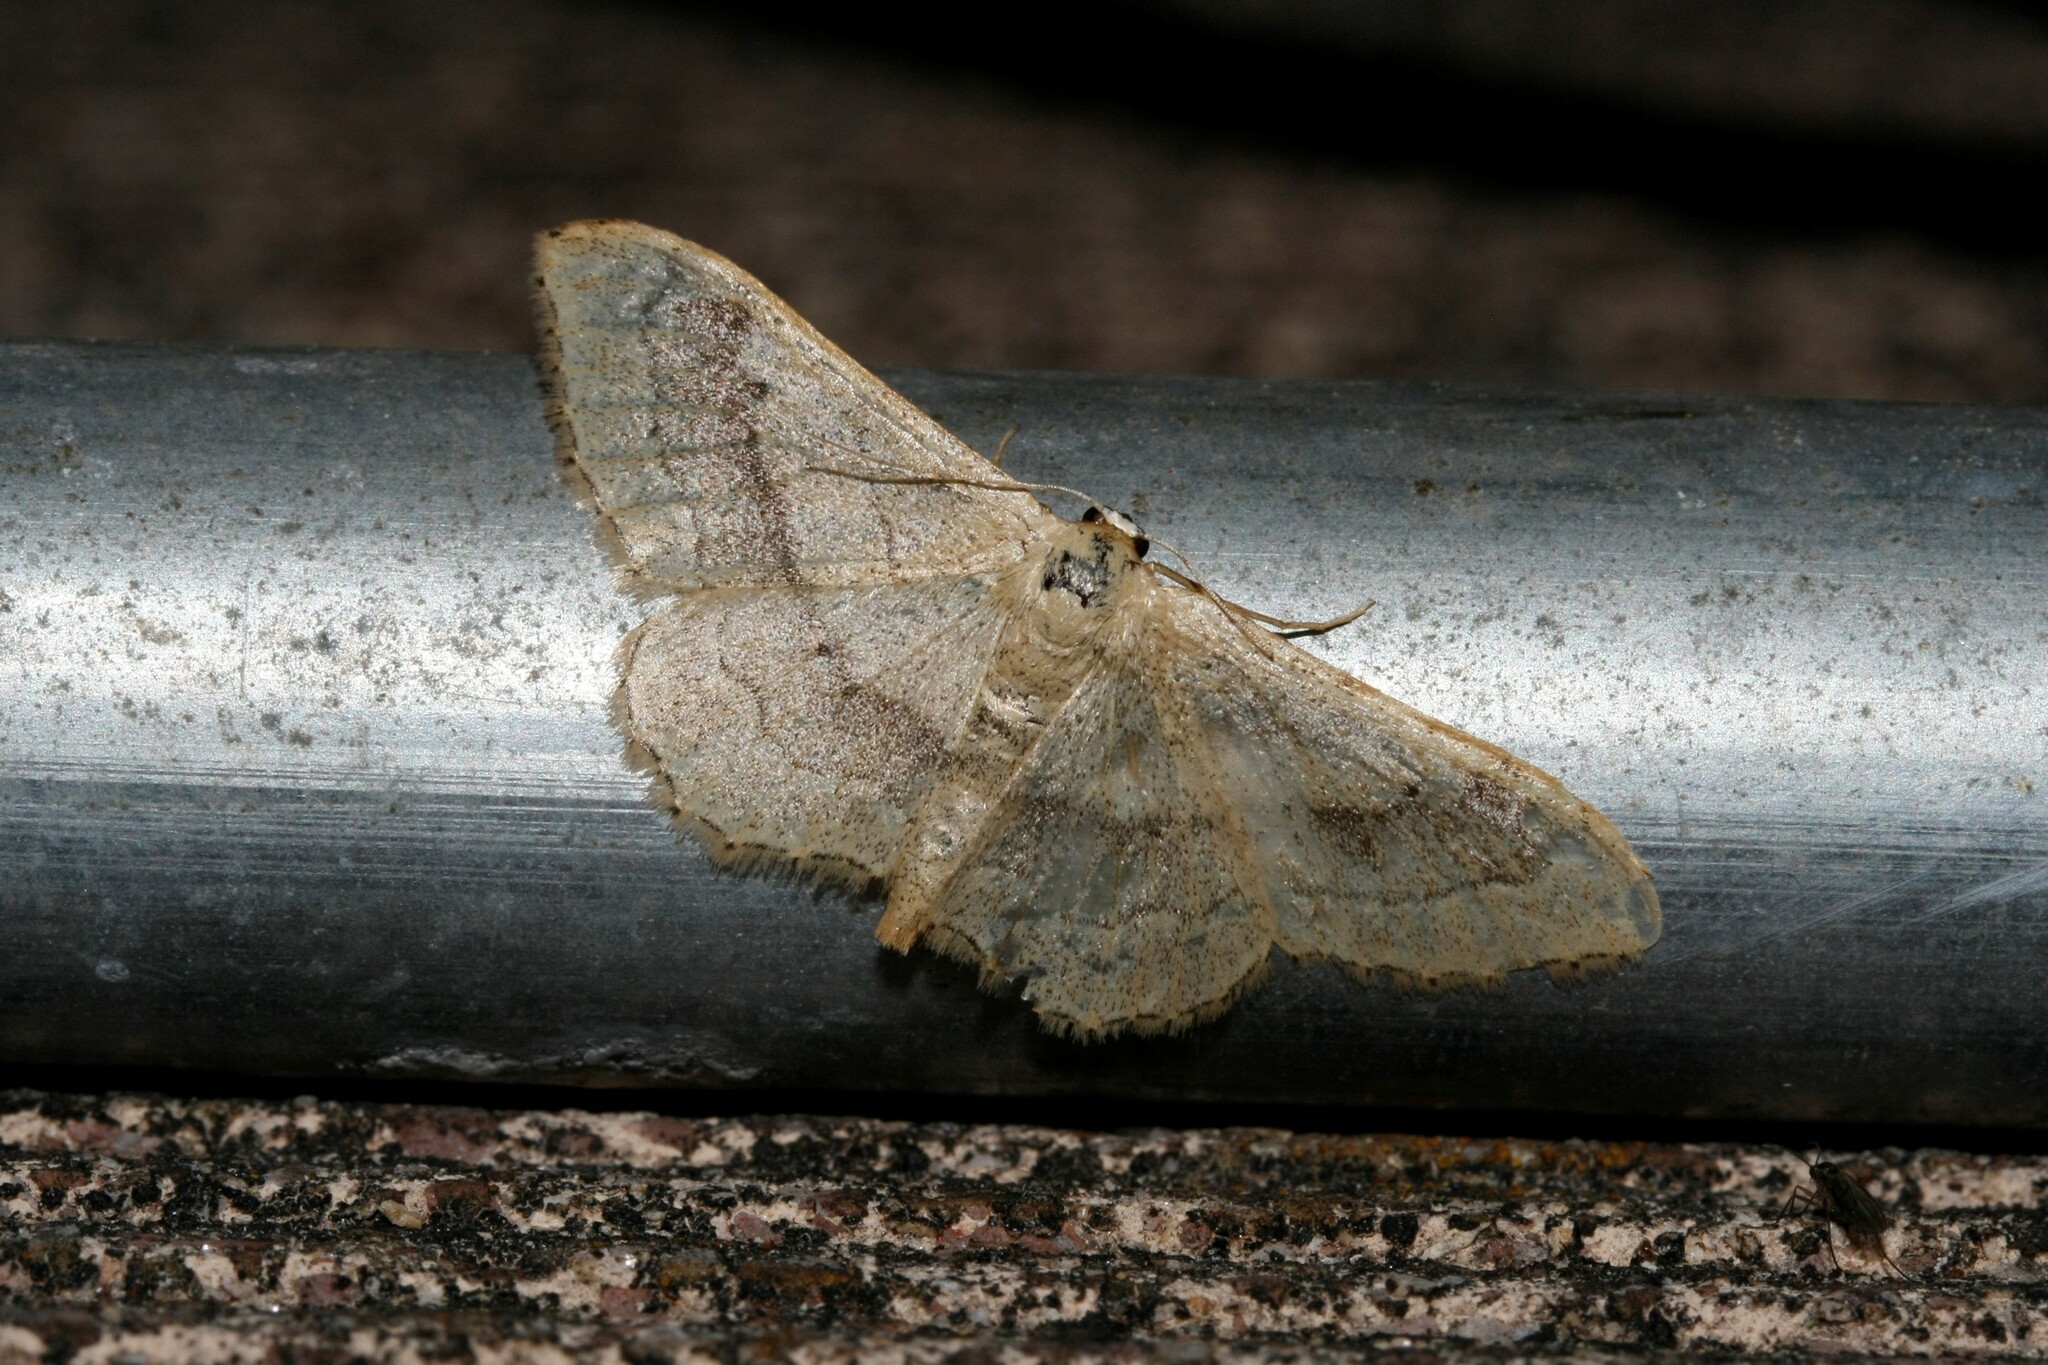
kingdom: Animalia
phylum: Arthropoda
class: Insecta
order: Lepidoptera
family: Geometridae
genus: Idaea
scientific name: Idaea aversata
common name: Riband wave
